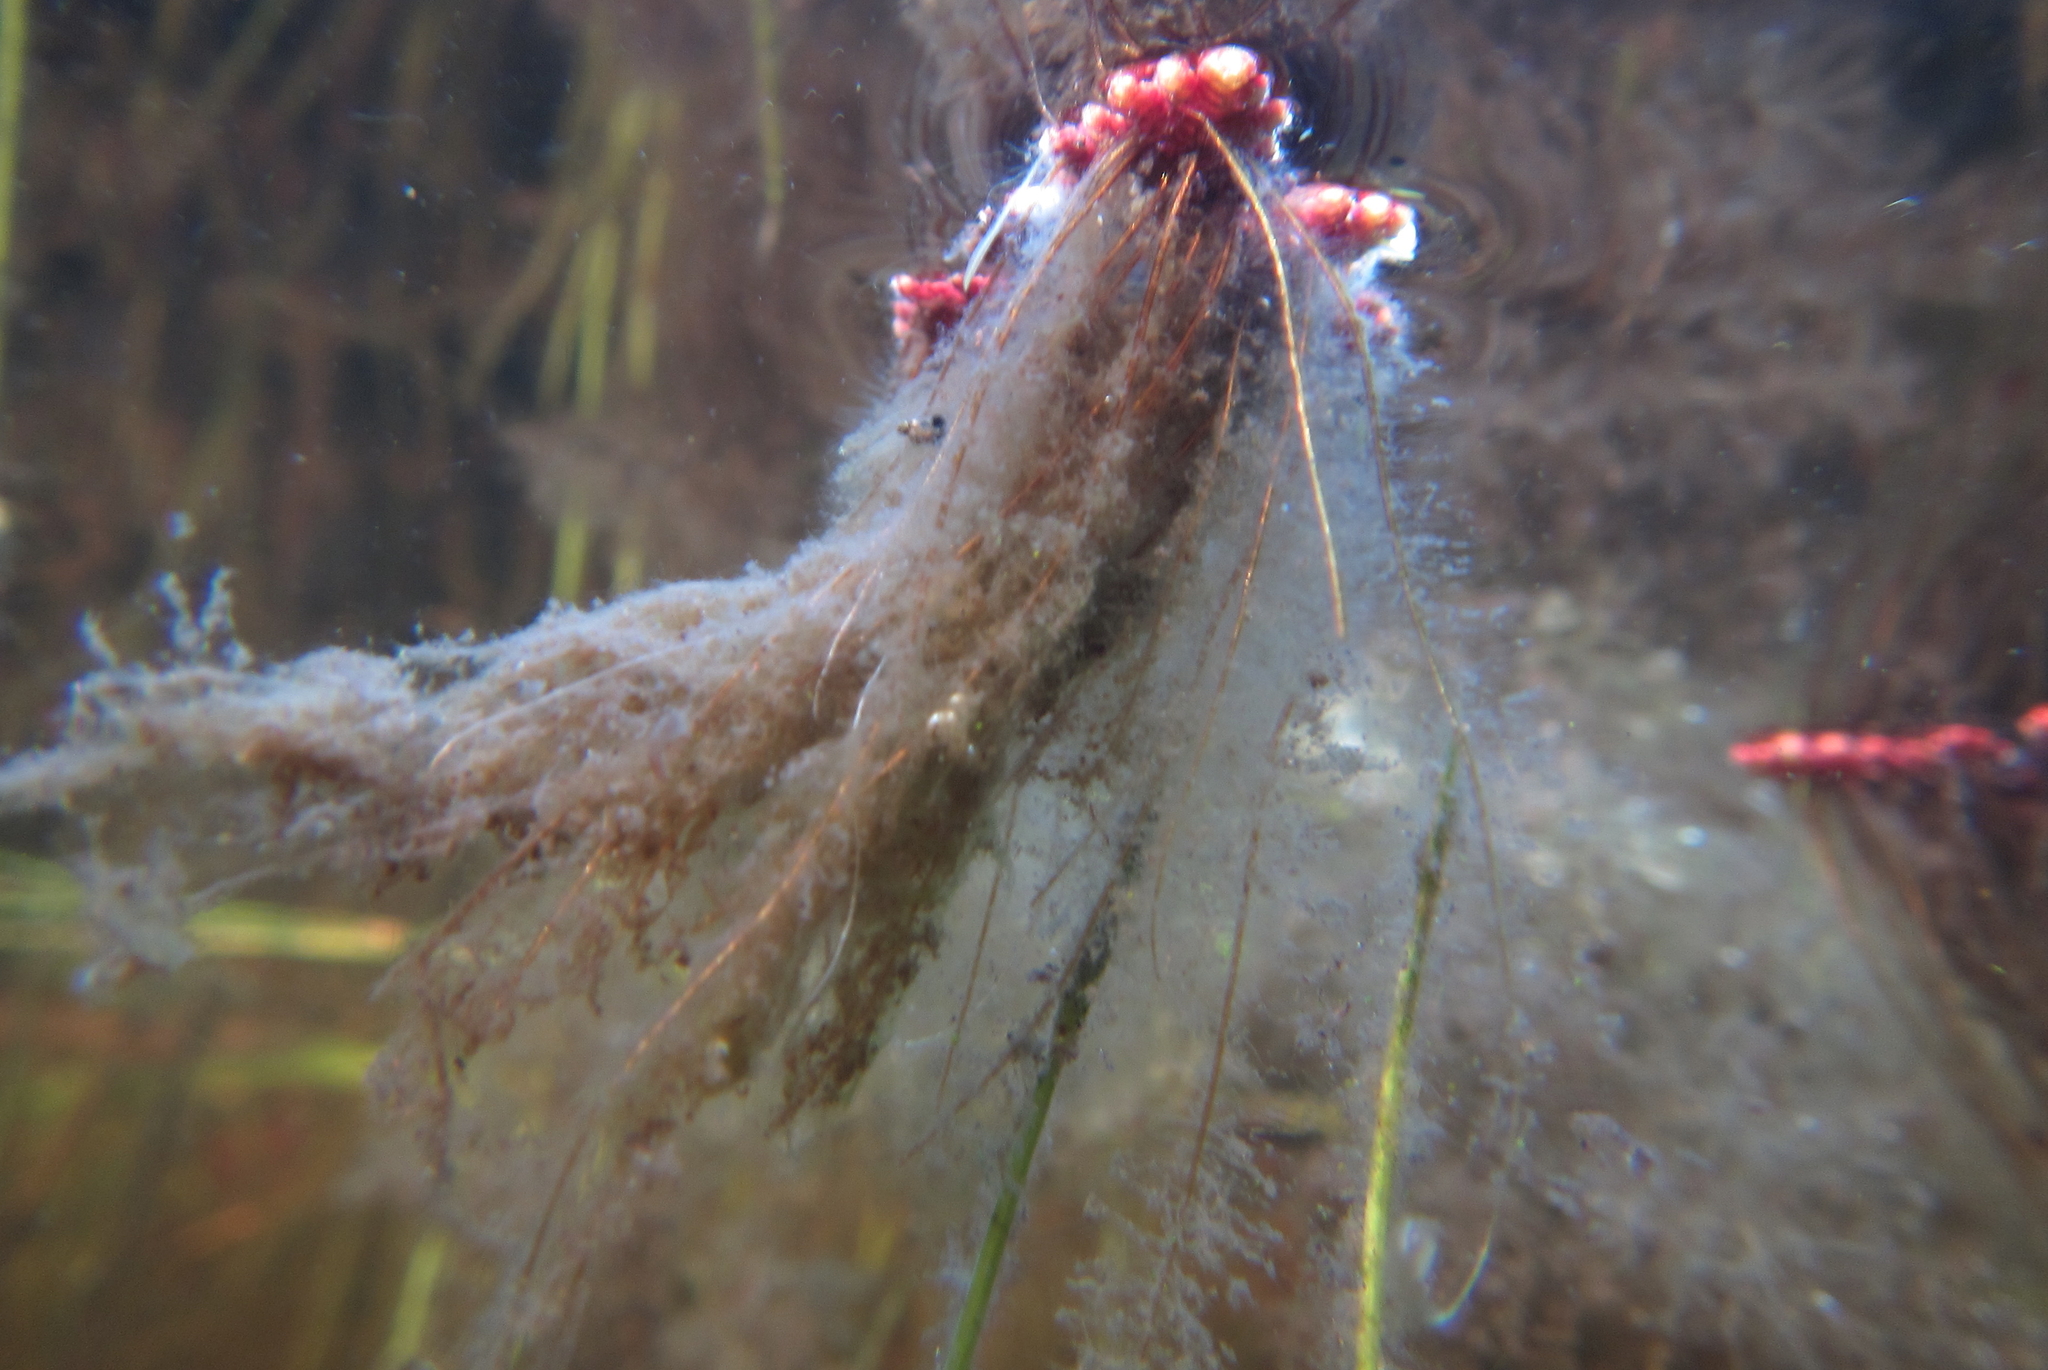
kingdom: Plantae
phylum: Tracheophyta
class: Polypodiopsida
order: Salviniales
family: Salviniaceae
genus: Azolla
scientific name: Azolla cristata
